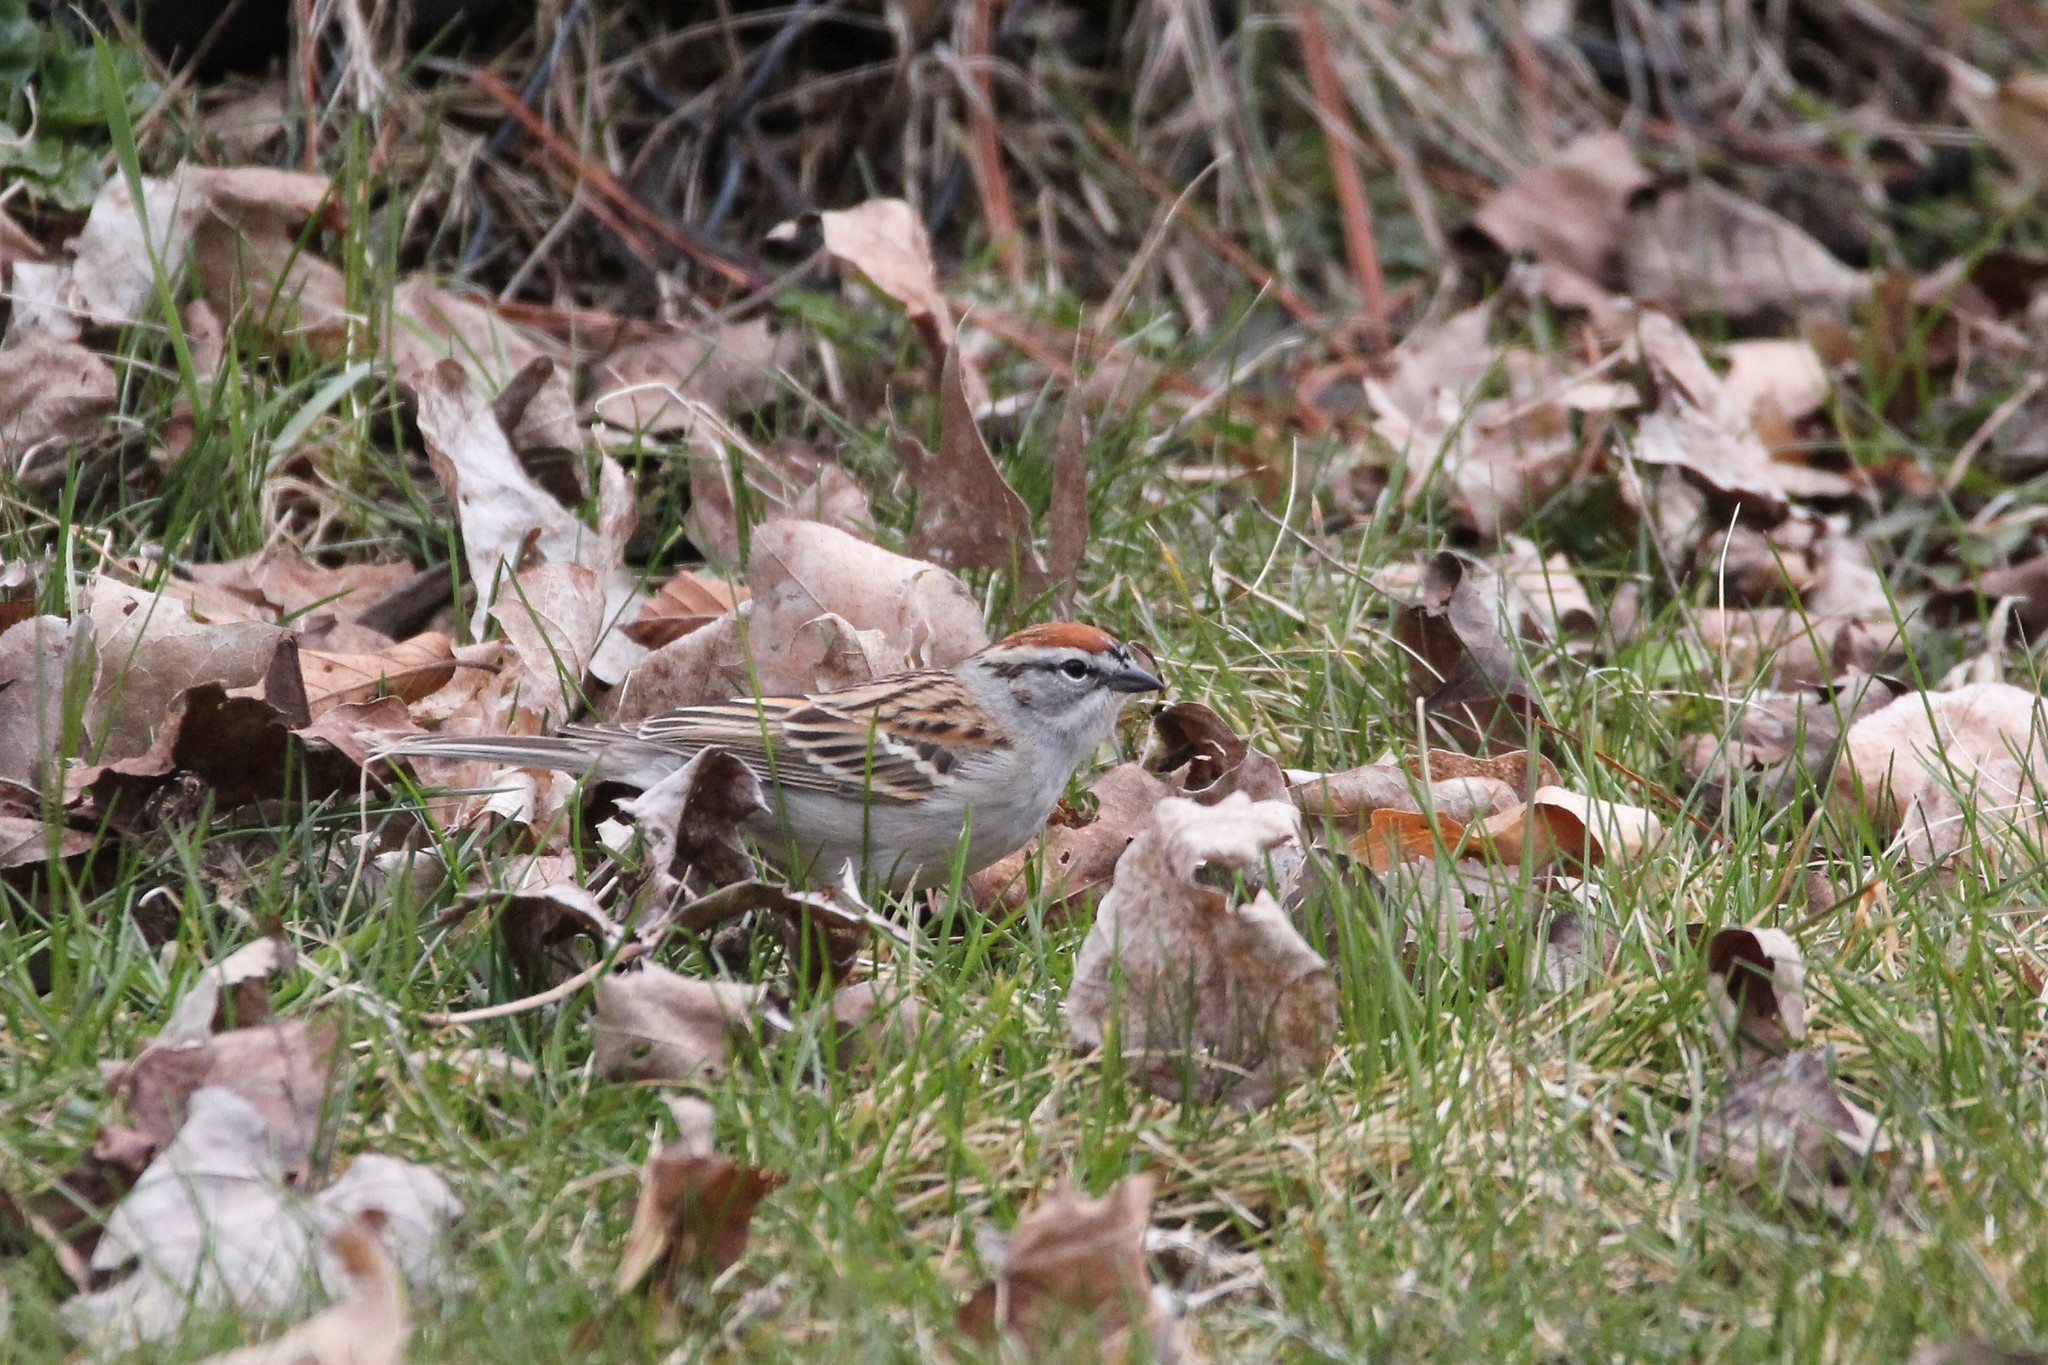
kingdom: Animalia
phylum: Chordata
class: Aves
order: Passeriformes
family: Passerellidae
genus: Spizella
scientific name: Spizella passerina
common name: Chipping sparrow
